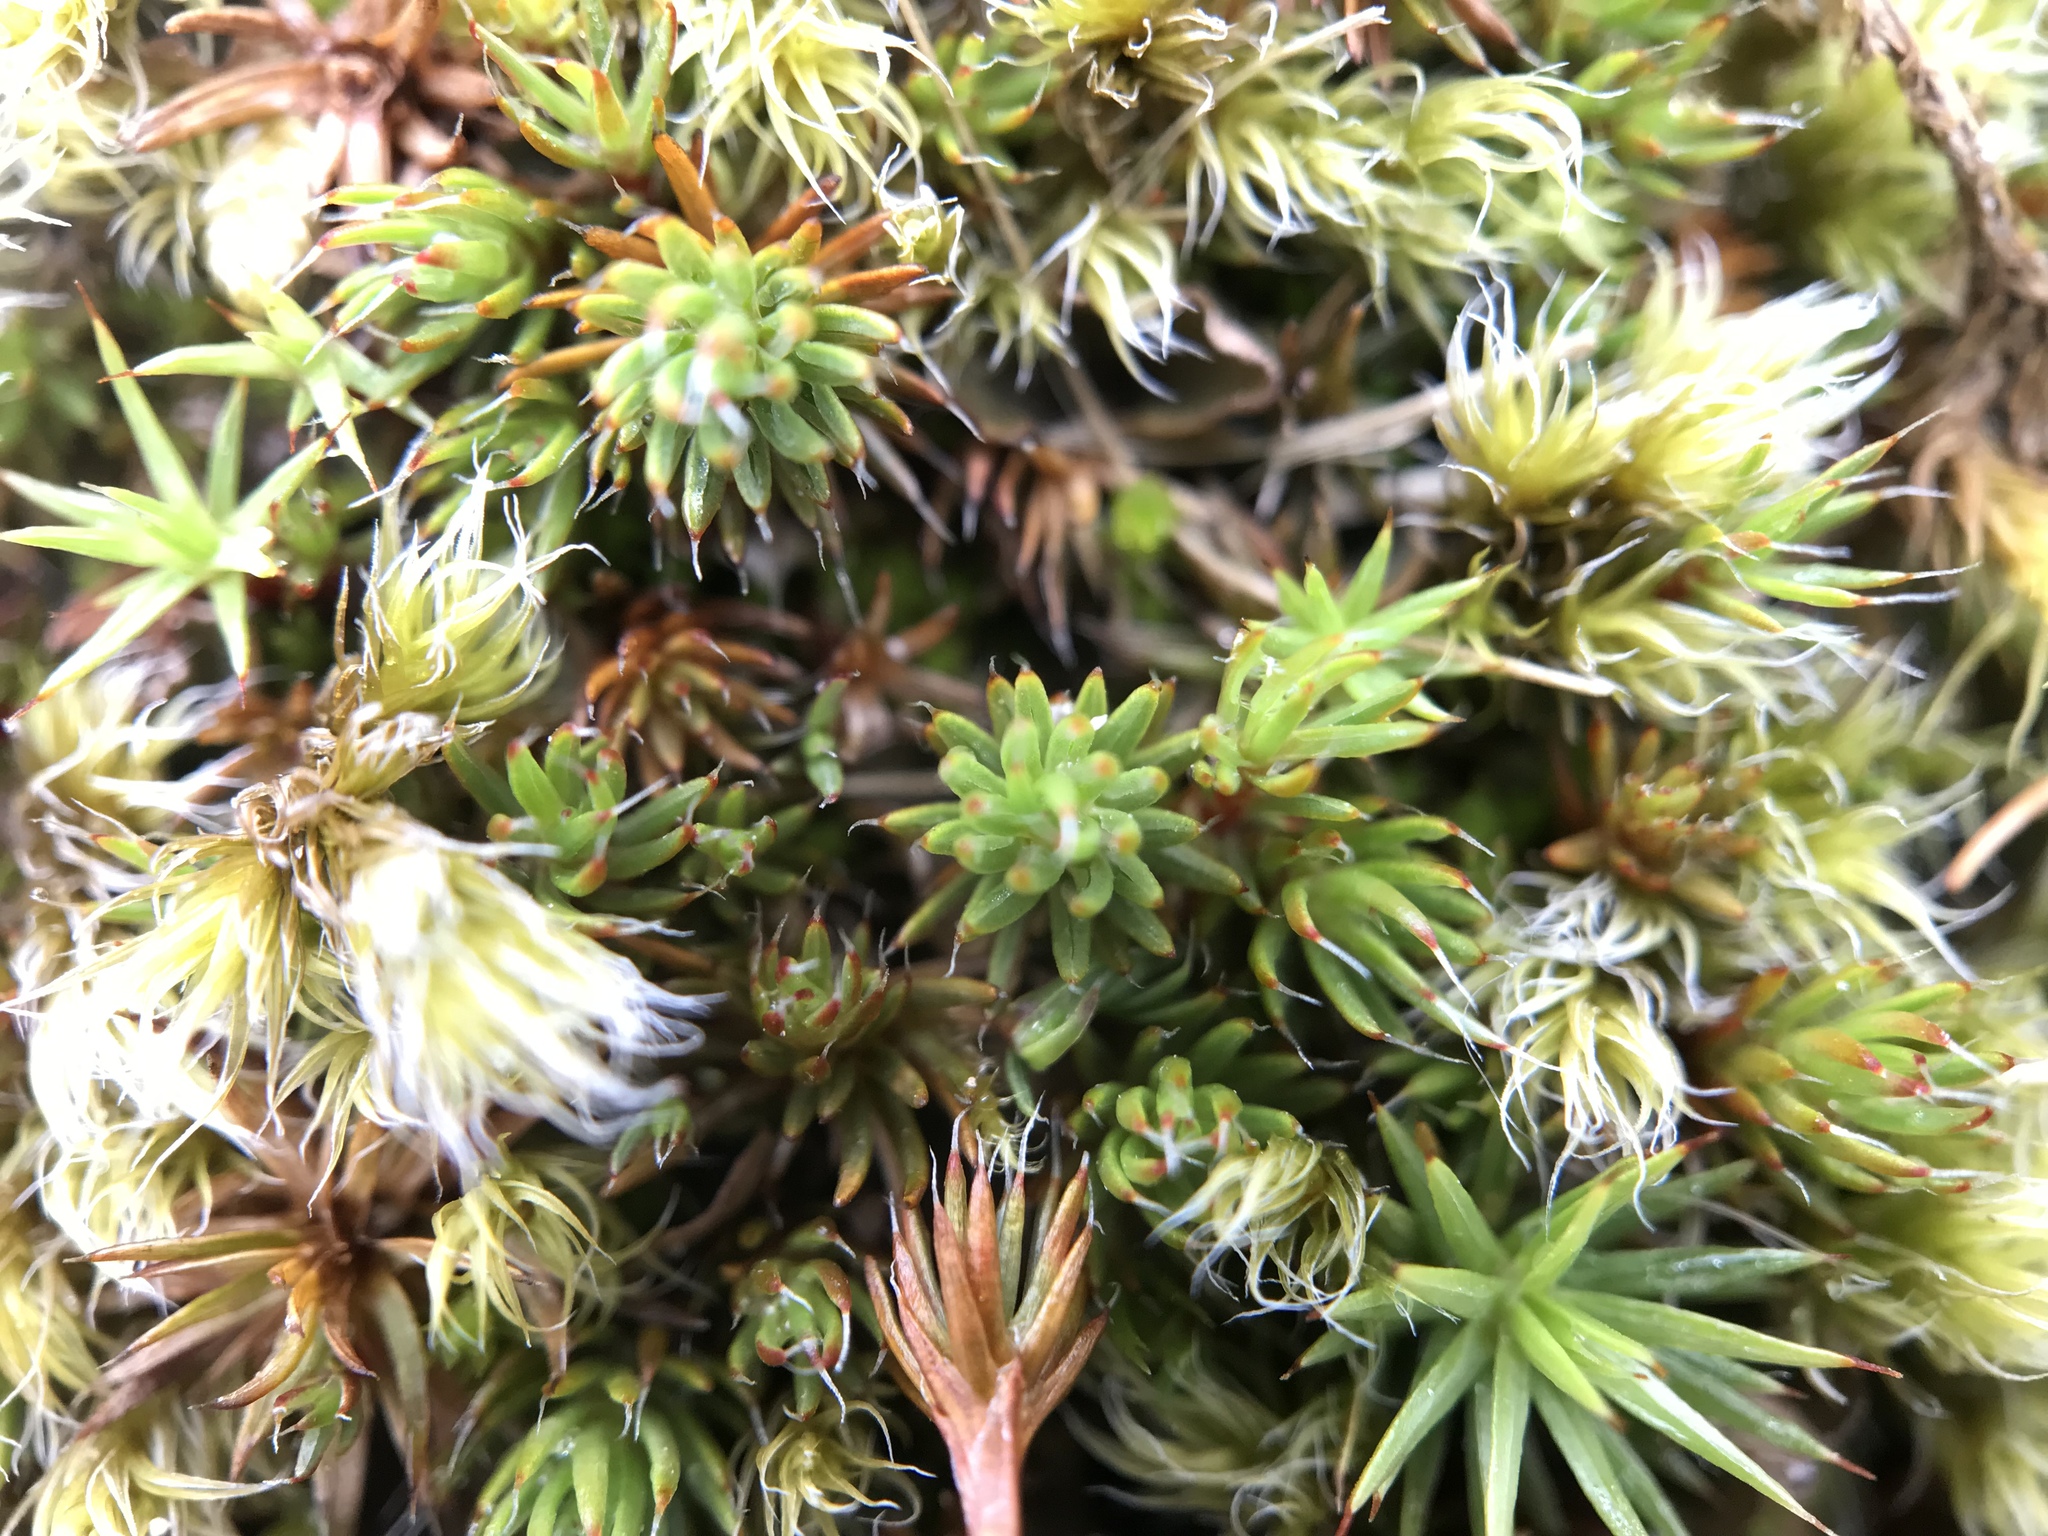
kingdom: Plantae
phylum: Bryophyta
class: Polytrichopsida
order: Polytrichales
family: Polytrichaceae
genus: Polytrichum
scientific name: Polytrichum piliferum
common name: Bristly haircap
